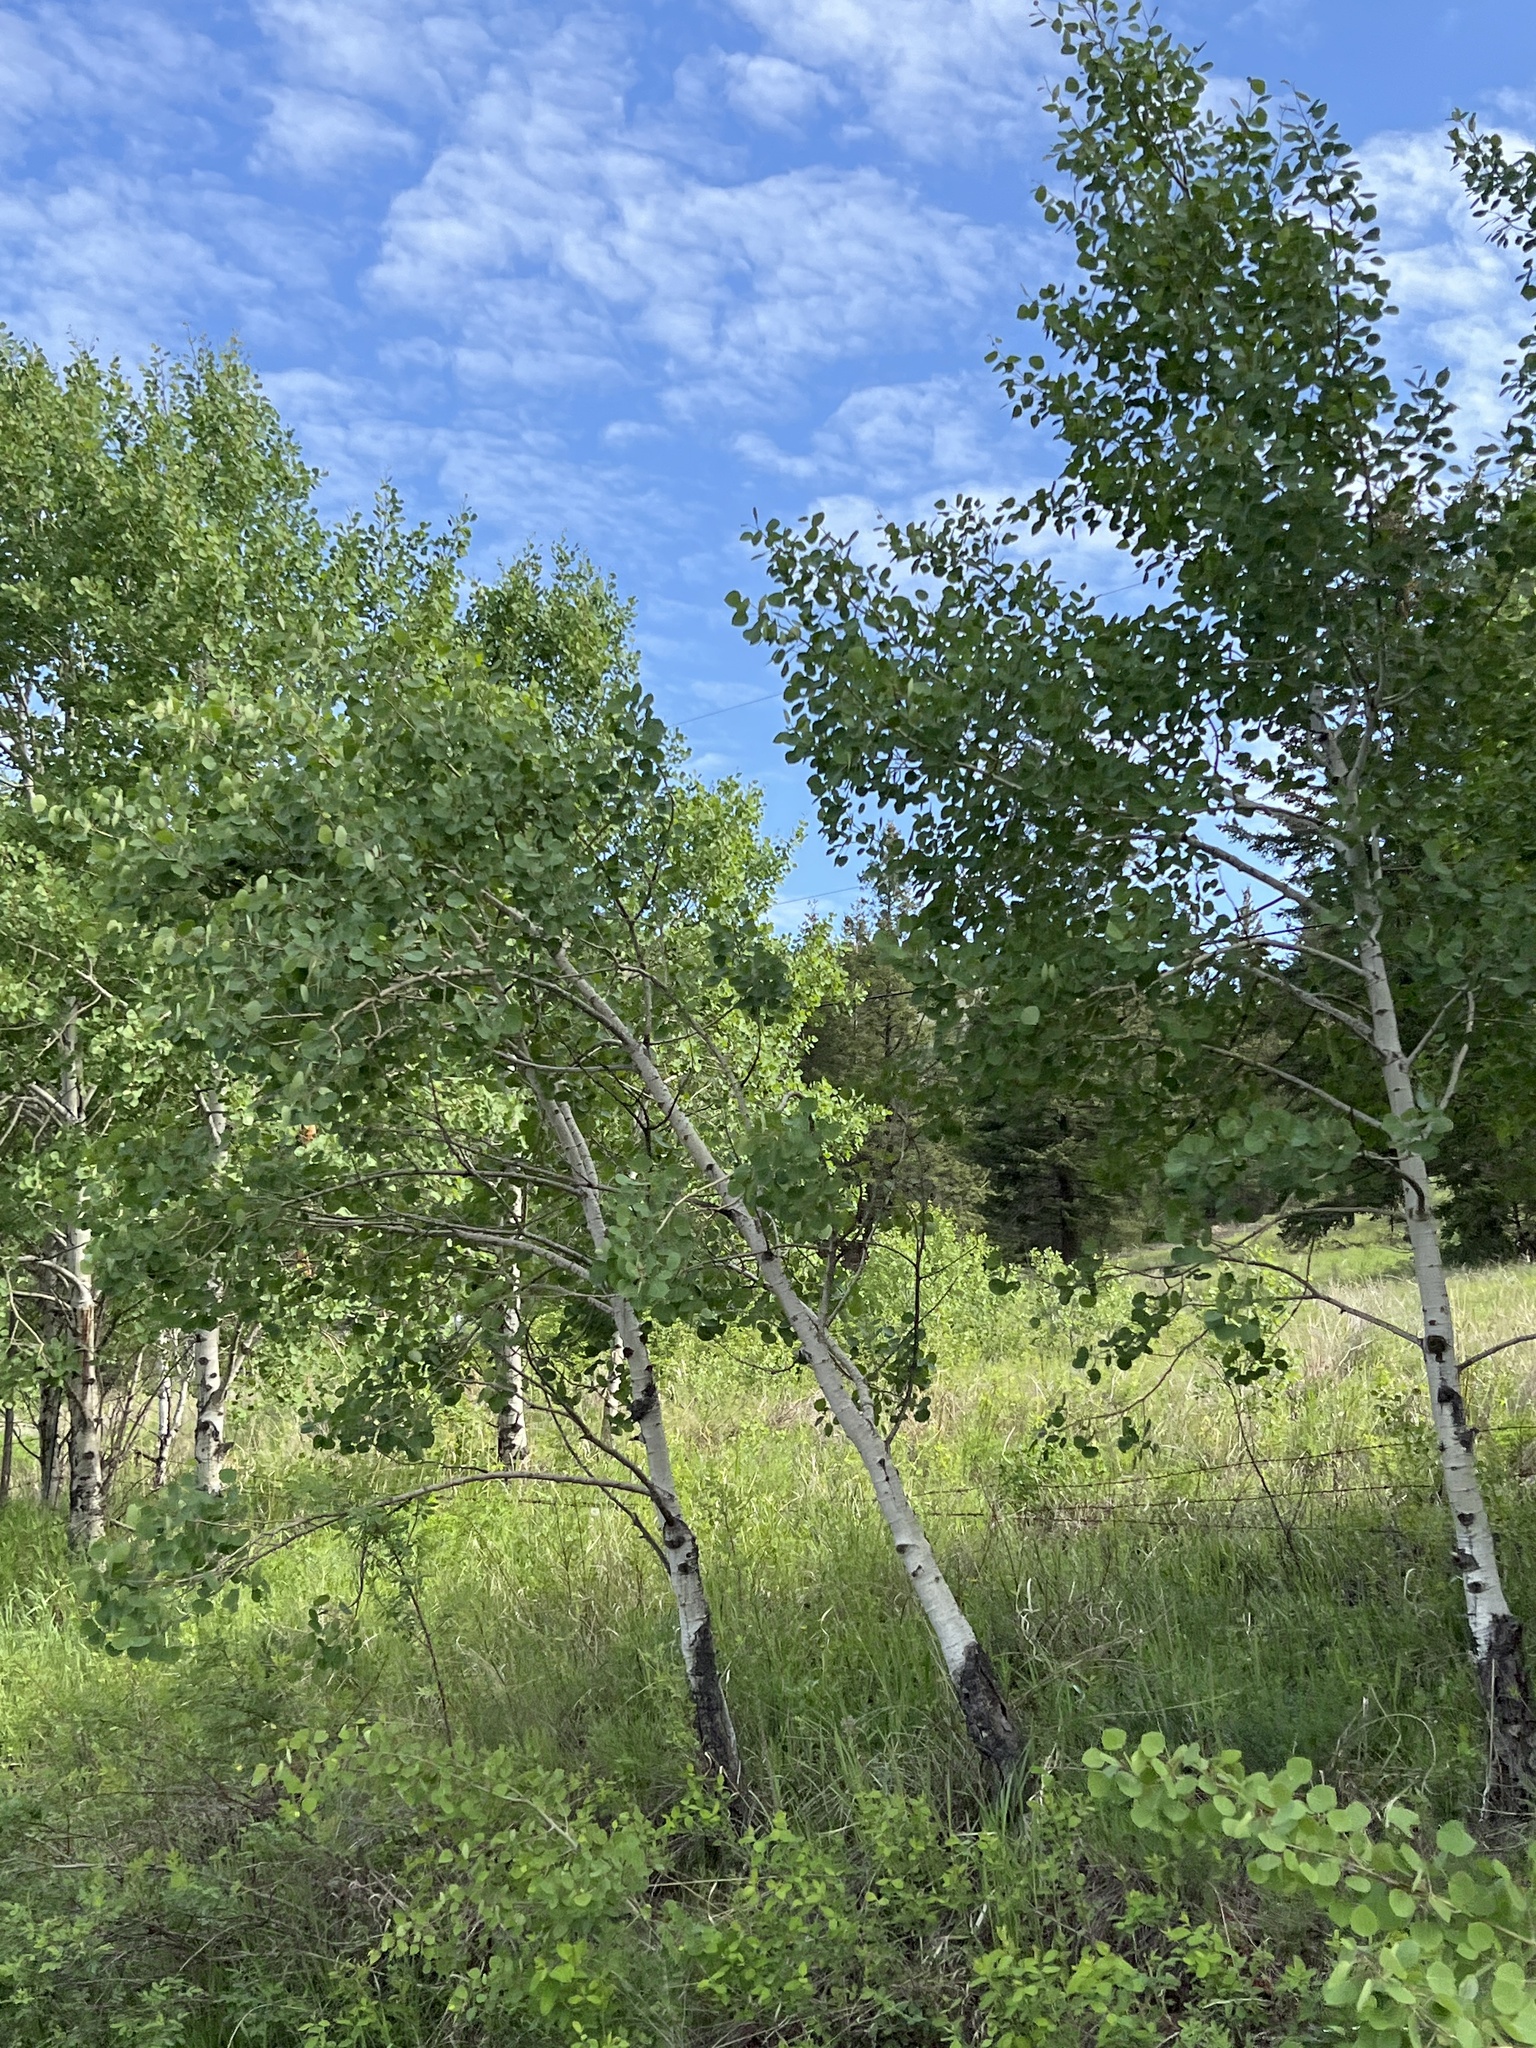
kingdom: Plantae
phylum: Tracheophyta
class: Magnoliopsida
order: Malpighiales
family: Salicaceae
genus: Populus
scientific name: Populus tremuloides
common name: Quaking aspen
